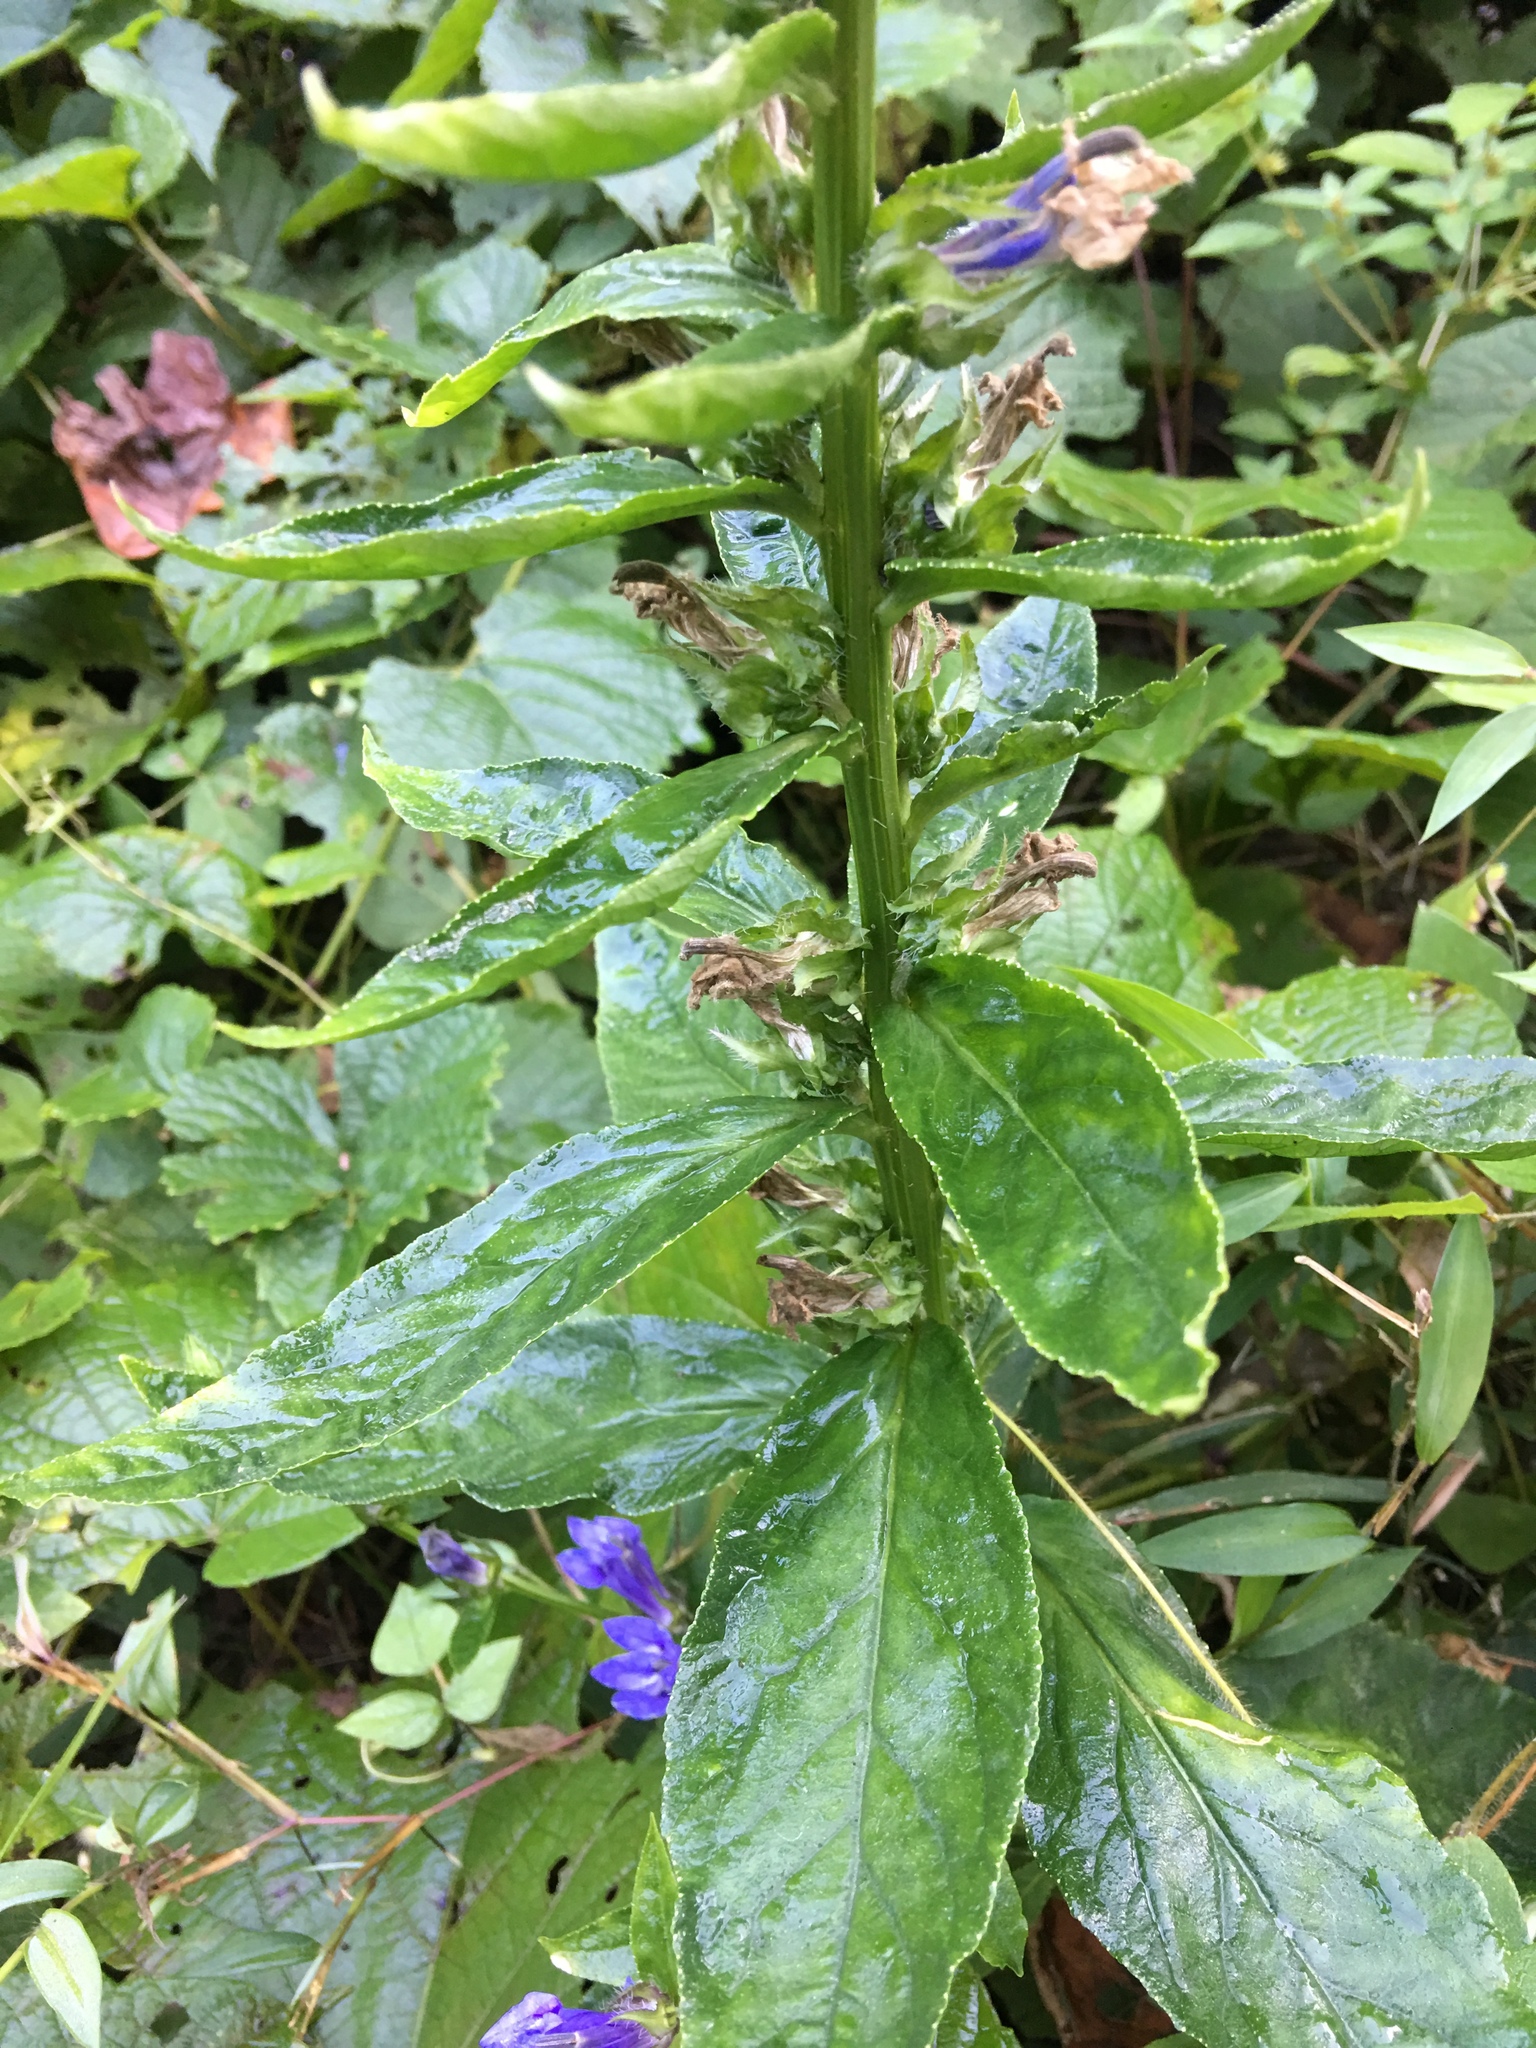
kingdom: Plantae
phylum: Tracheophyta
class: Magnoliopsida
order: Asterales
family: Campanulaceae
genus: Lobelia
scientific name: Lobelia siphilitica
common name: Great lobelia
